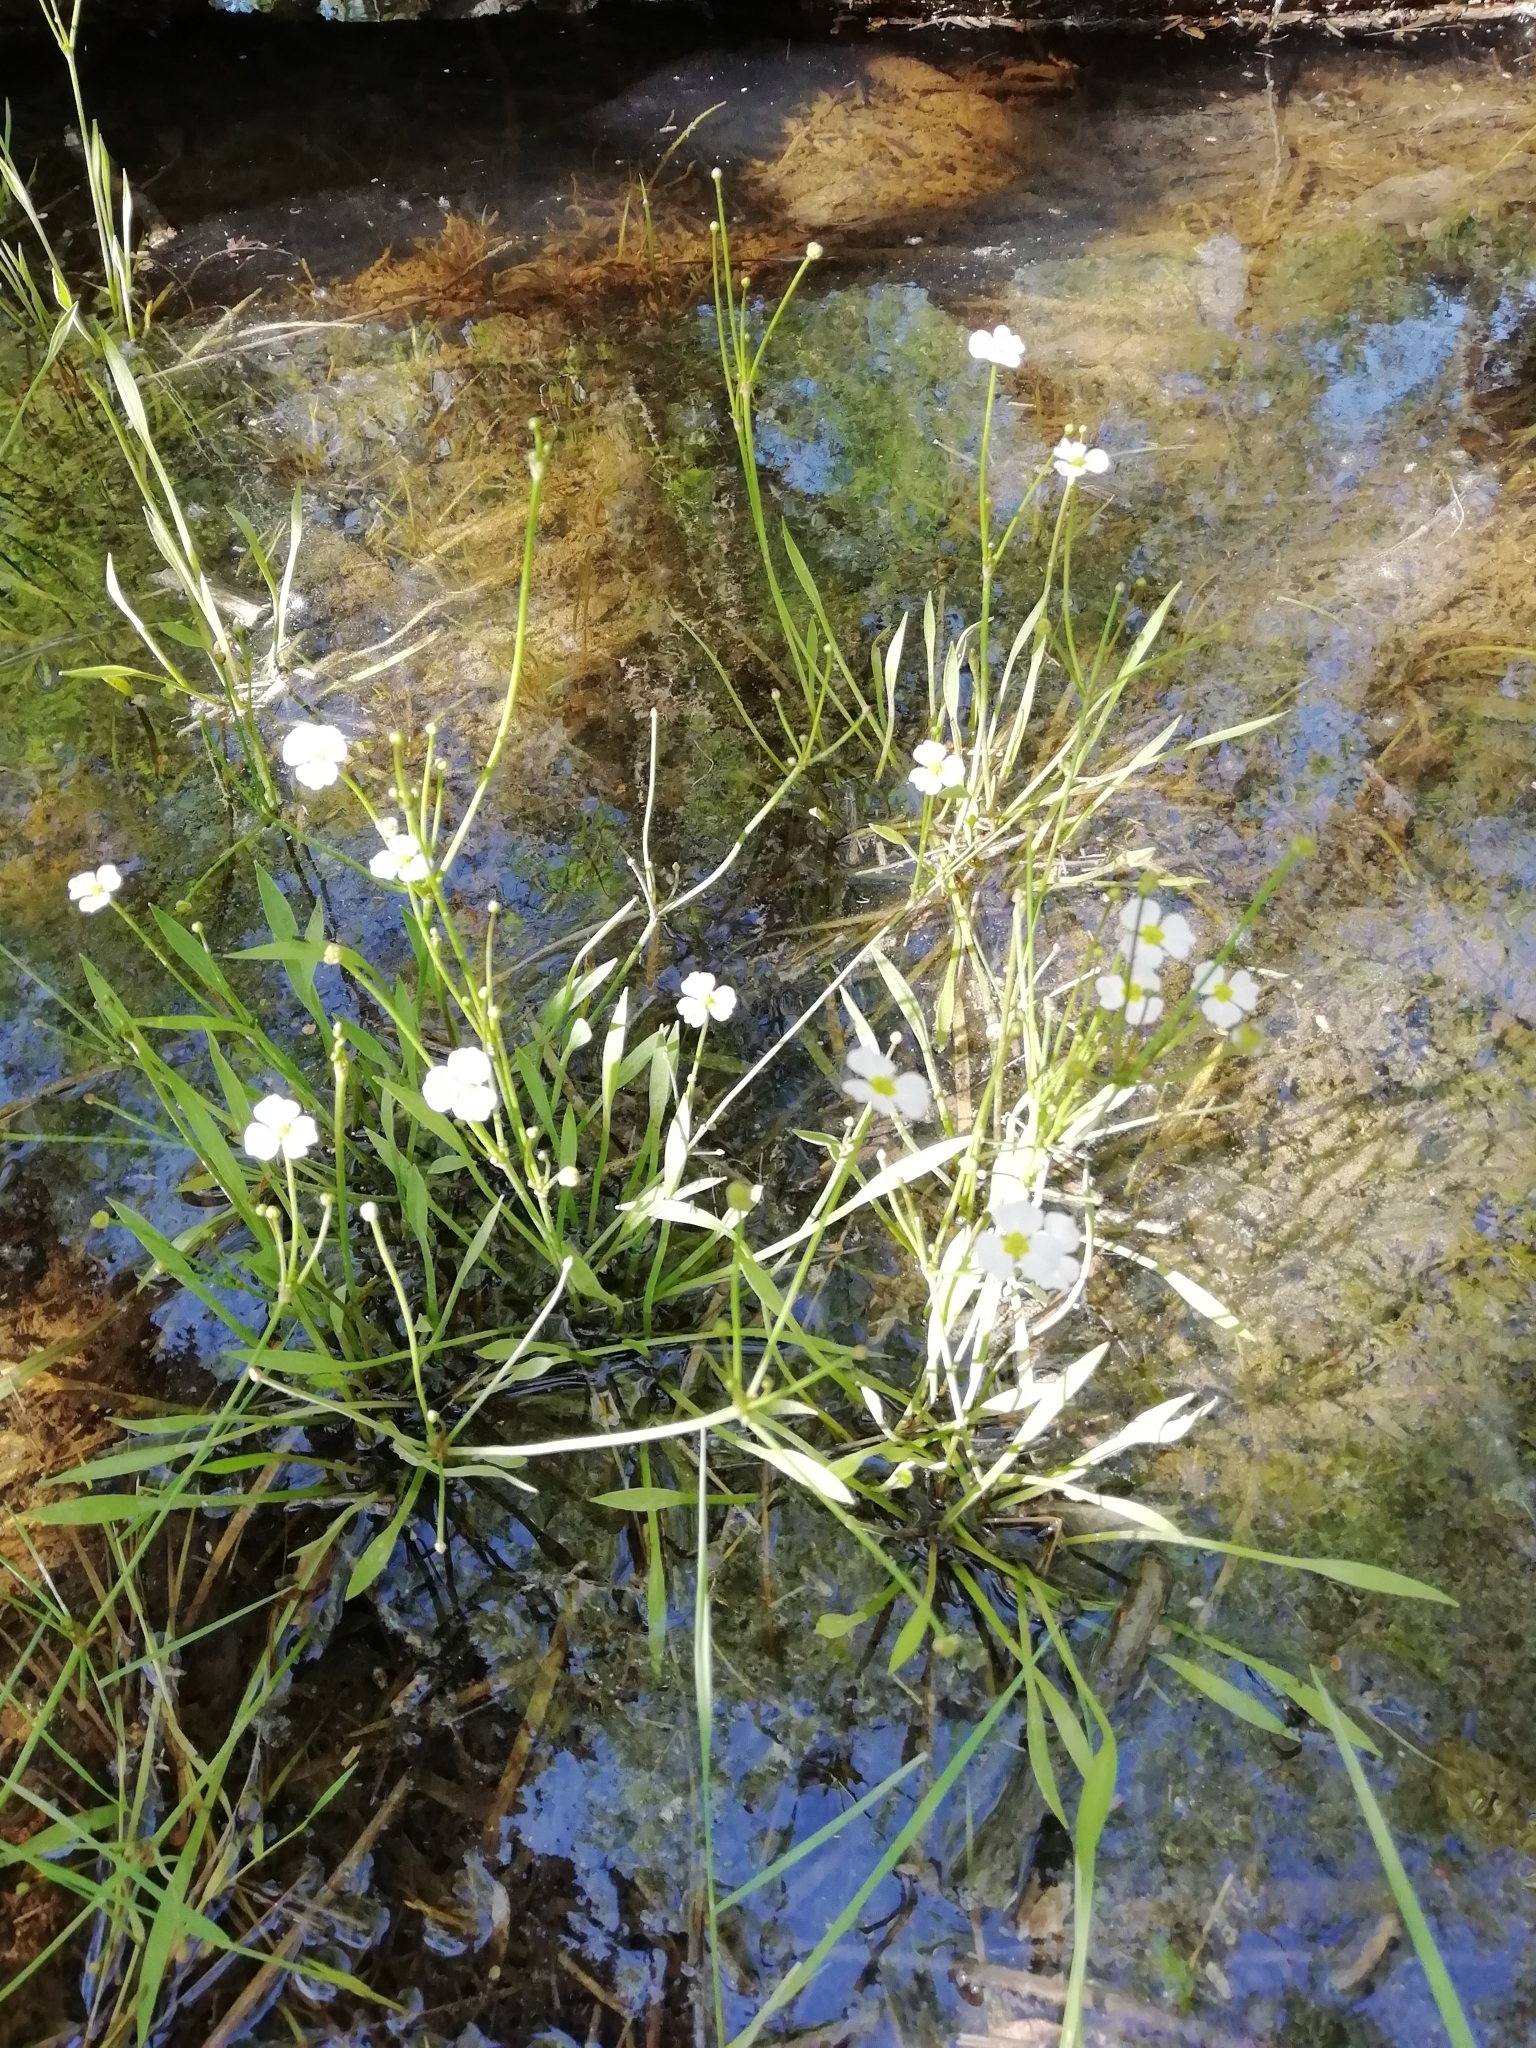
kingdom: Plantae
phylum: Tracheophyta
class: Liliopsida
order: Alismatales
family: Alismataceae
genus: Baldellia
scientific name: Baldellia ranunculoides
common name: Lesser water-plantain
